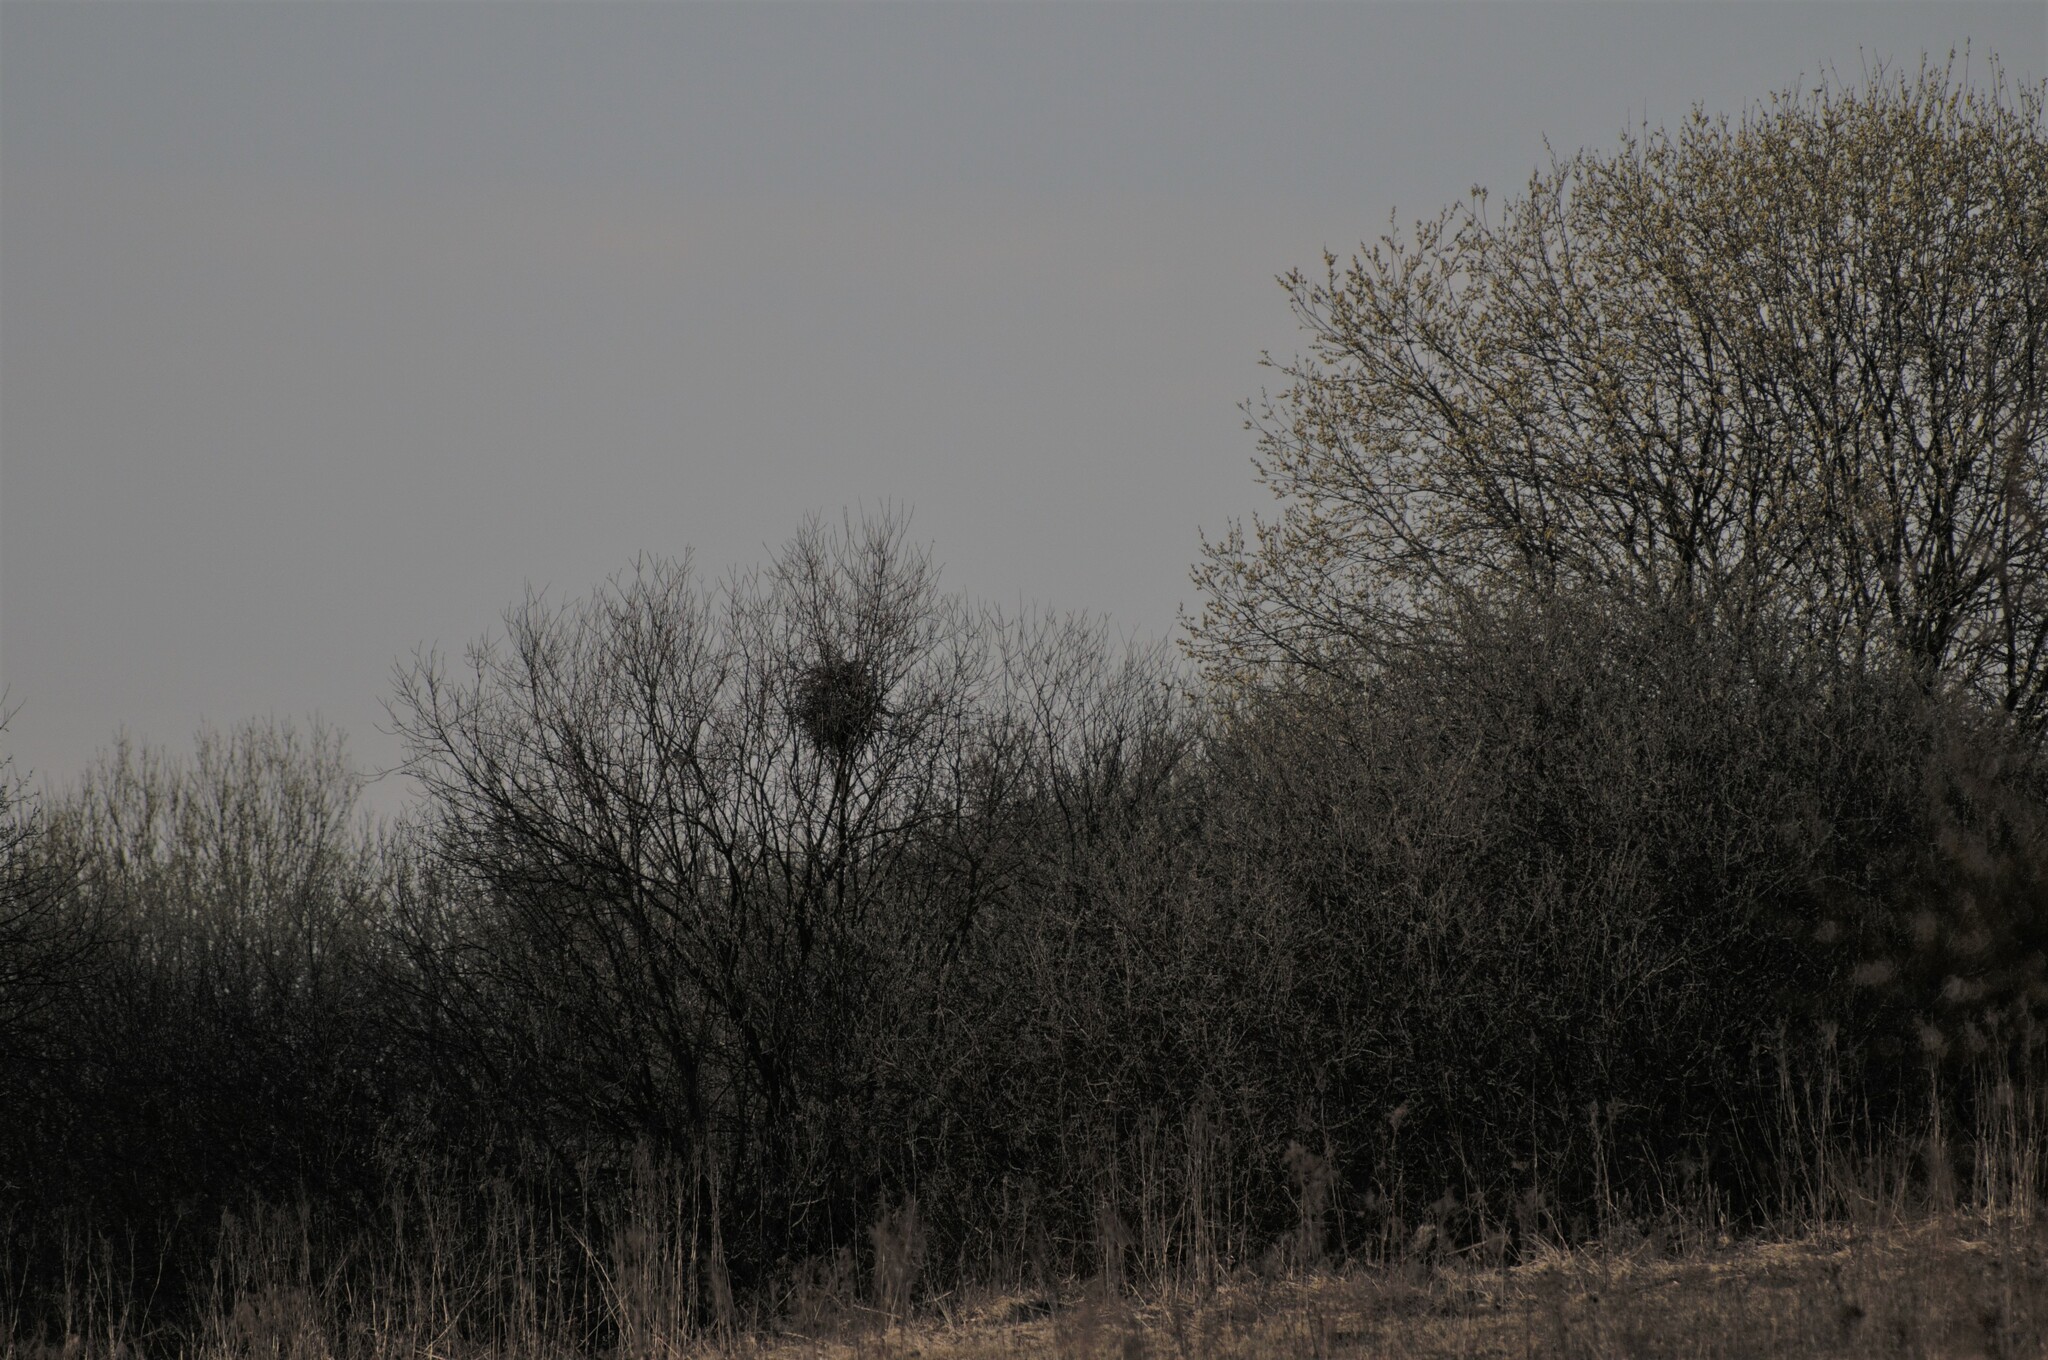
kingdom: Animalia
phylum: Chordata
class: Aves
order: Passeriformes
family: Corvidae
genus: Pica
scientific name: Pica pica
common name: Eurasian magpie
